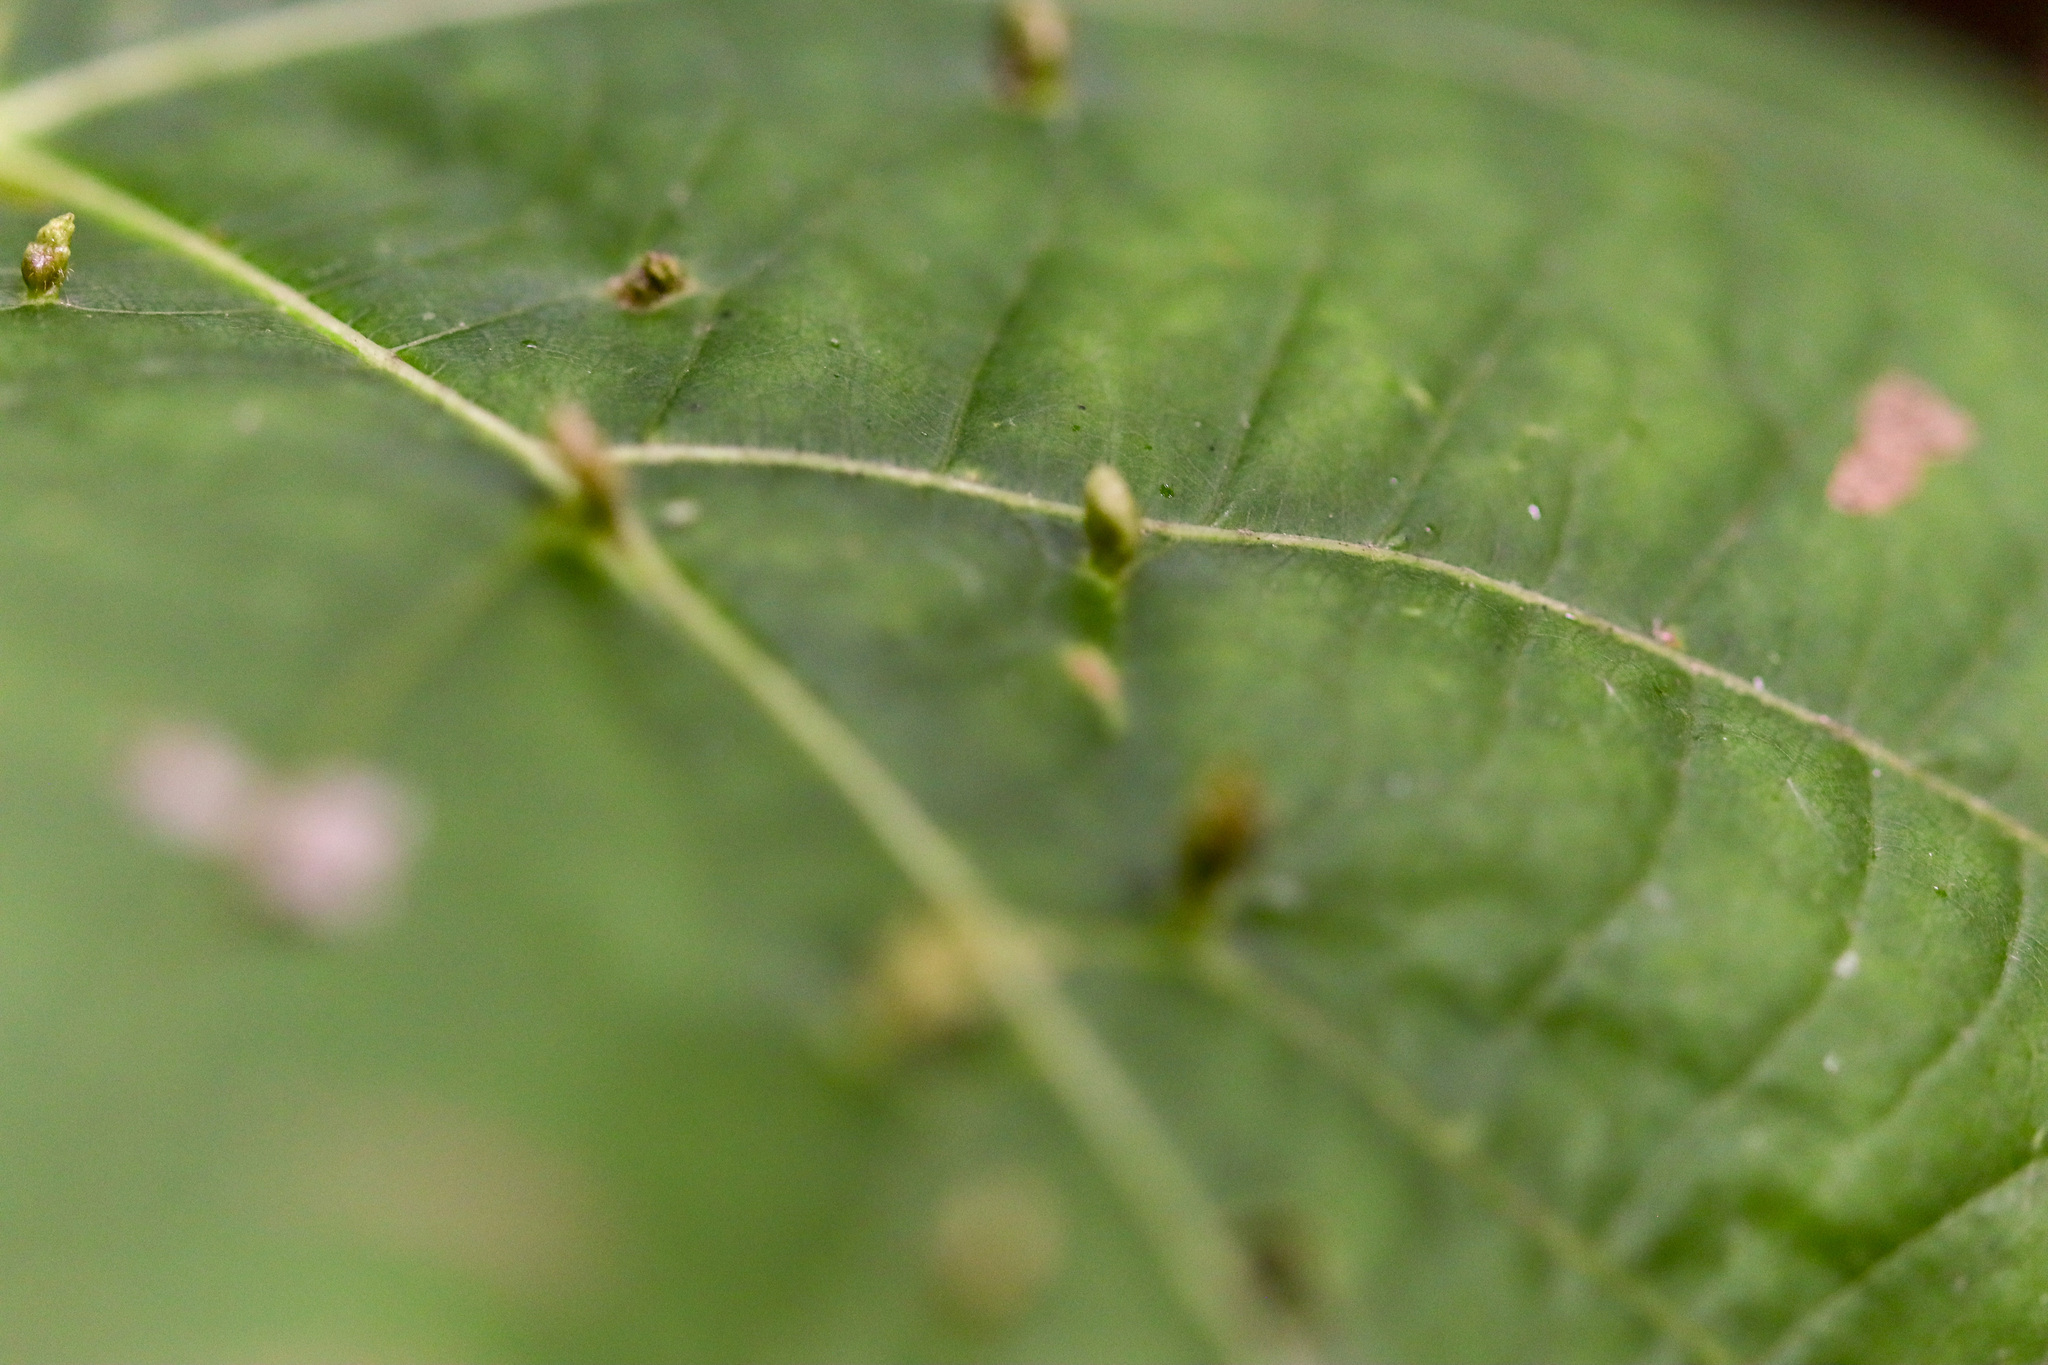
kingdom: Animalia
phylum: Arthropoda
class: Arachnida
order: Trombidiformes
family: Eriophyidae
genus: Vasates
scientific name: Vasates aceriscrumena
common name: Maple spindle gall mite
